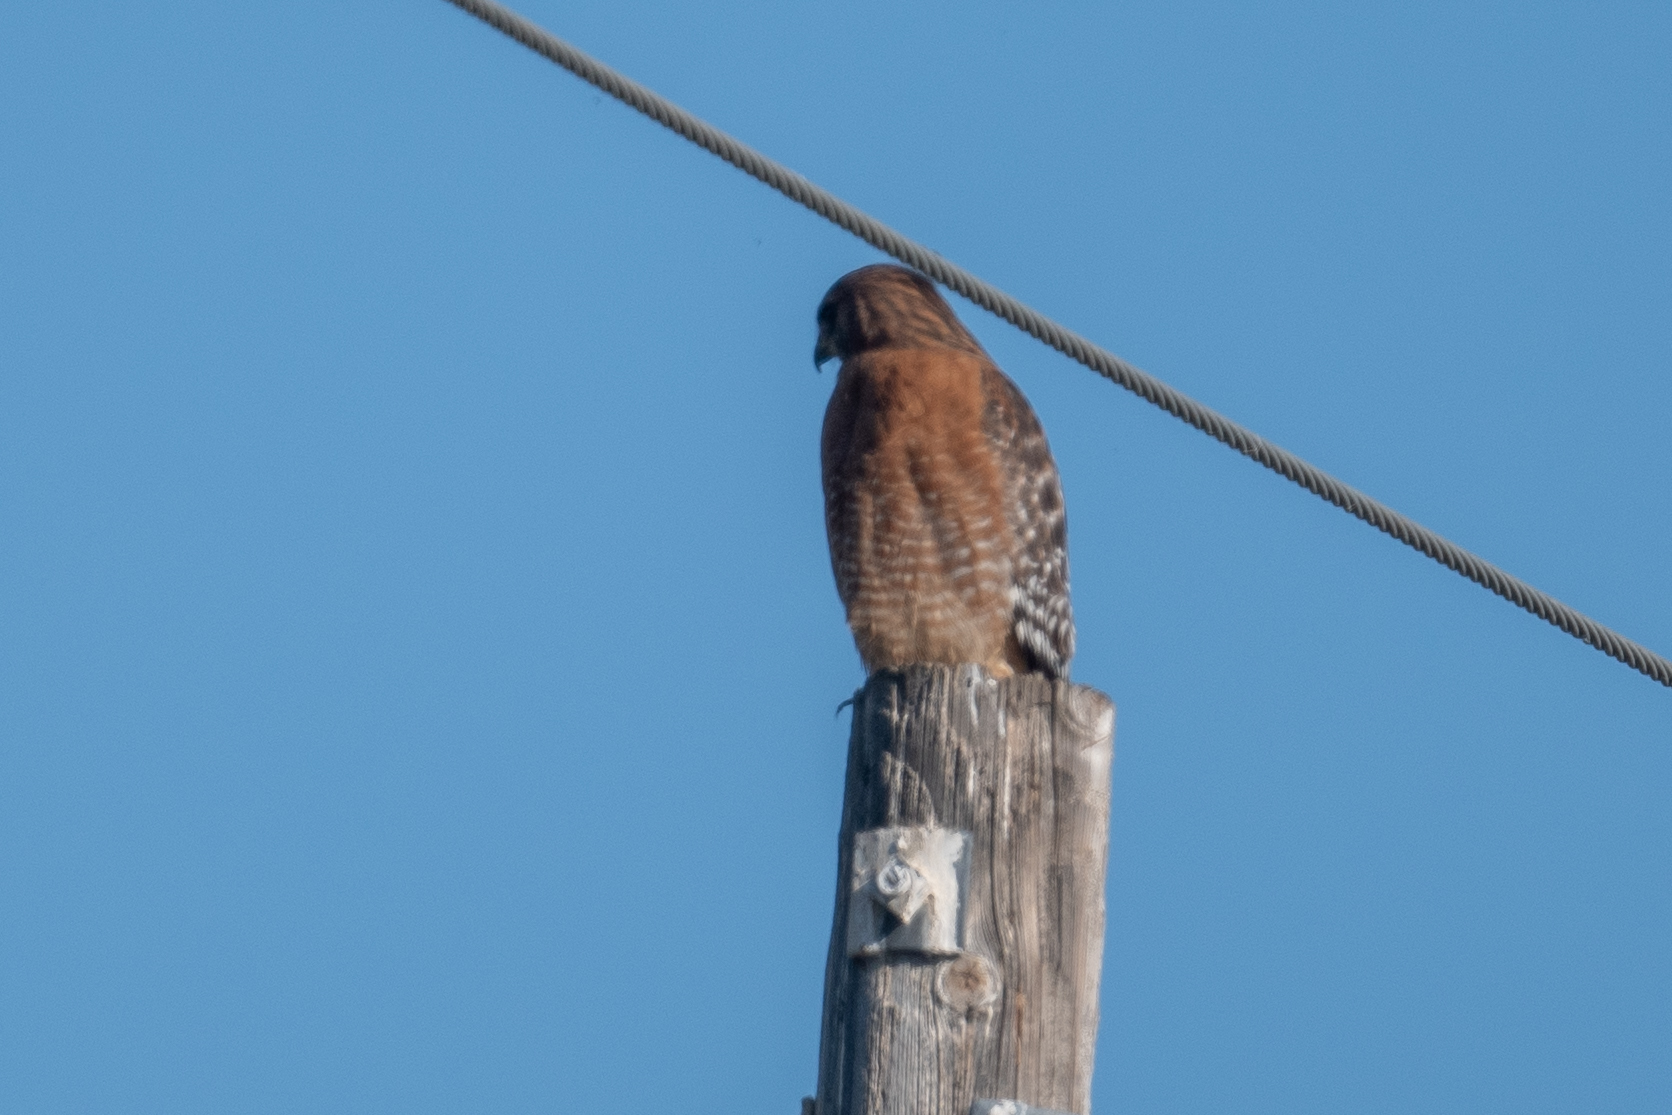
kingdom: Animalia
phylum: Chordata
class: Aves
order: Accipitriformes
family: Accipitridae
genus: Buteo
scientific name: Buteo lineatus
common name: Red-shouldered hawk
